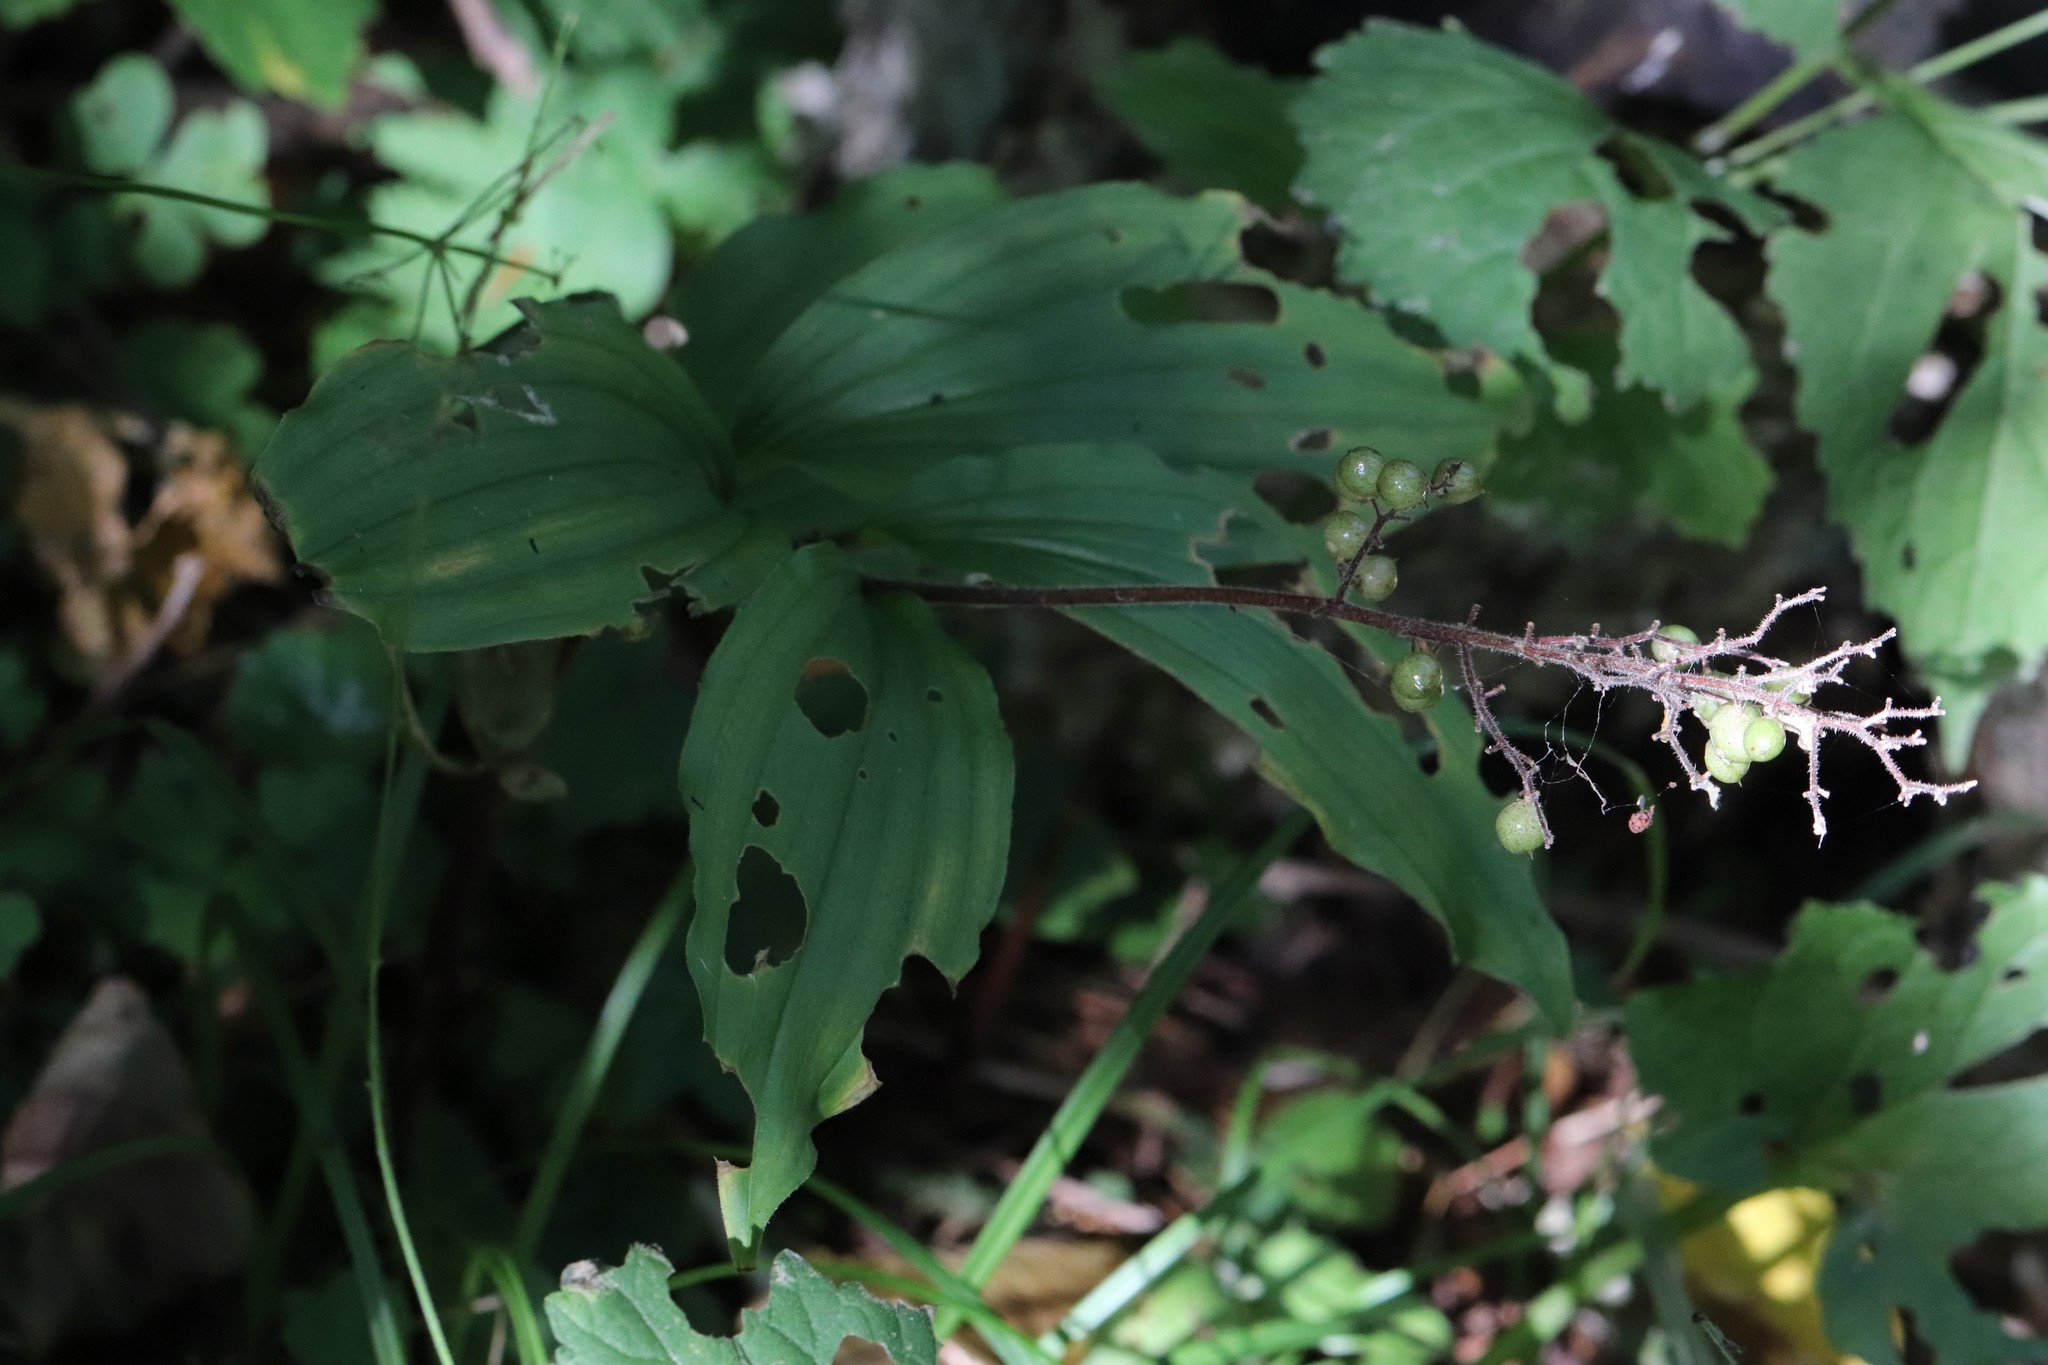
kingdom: Plantae
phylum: Tracheophyta
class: Liliopsida
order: Asparagales
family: Asparagaceae
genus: Maianthemum
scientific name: Maianthemum japonicum
